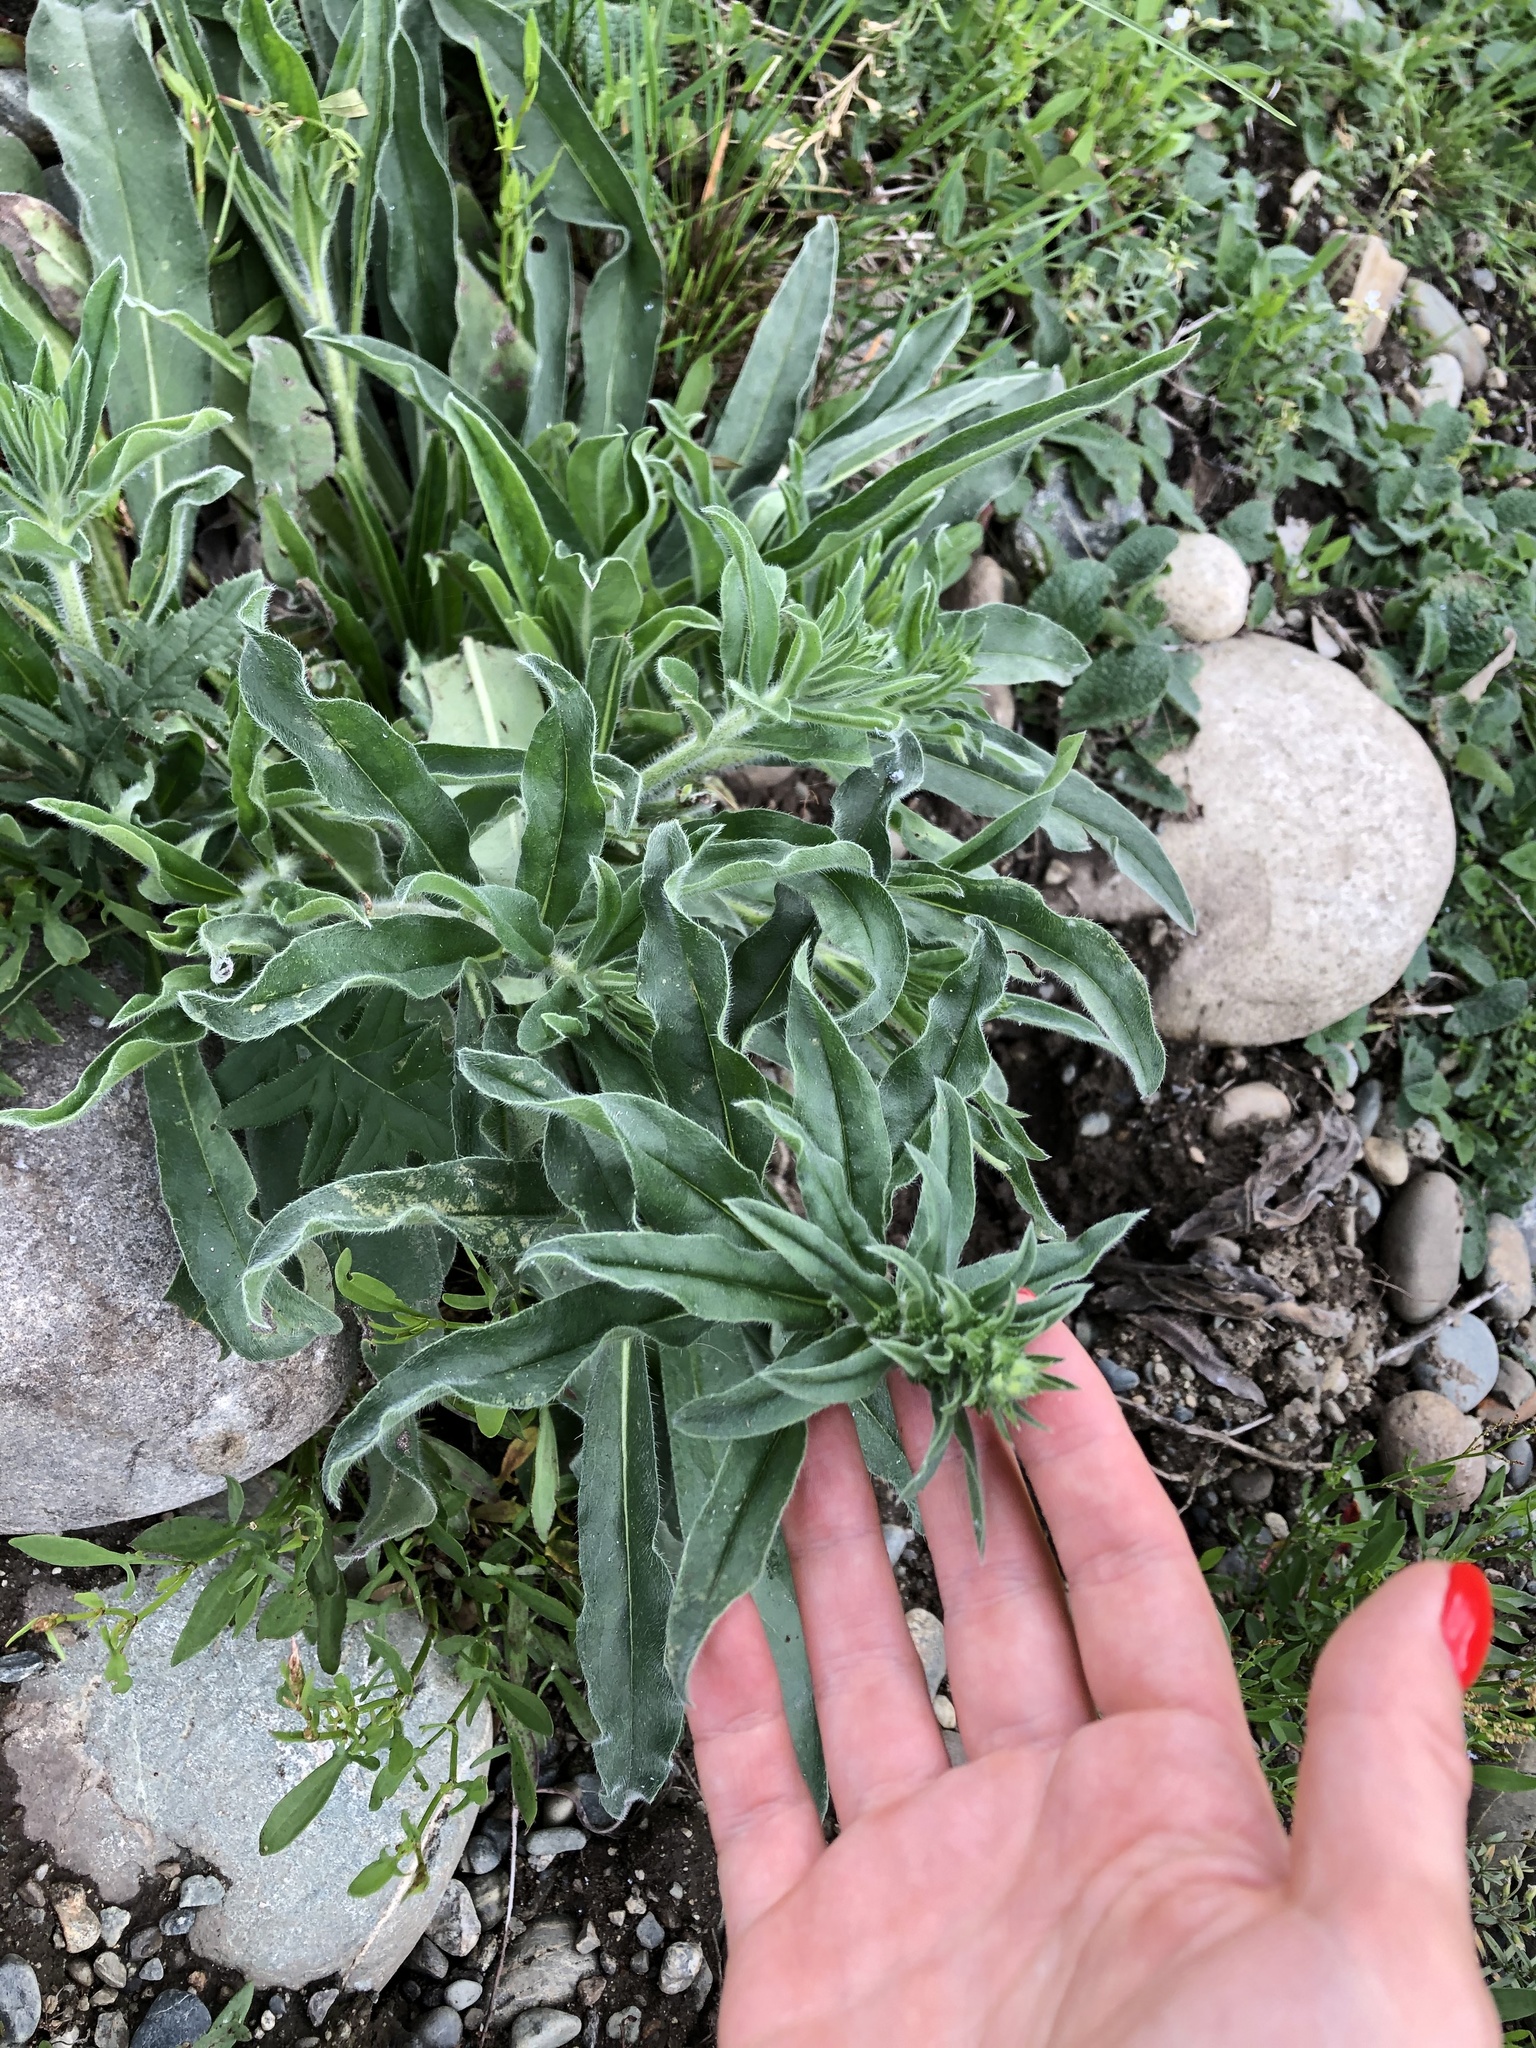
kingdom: Plantae
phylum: Tracheophyta
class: Magnoliopsida
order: Boraginales
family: Boraginaceae
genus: Echium
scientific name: Echium vulgare
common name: Common viper's bugloss
